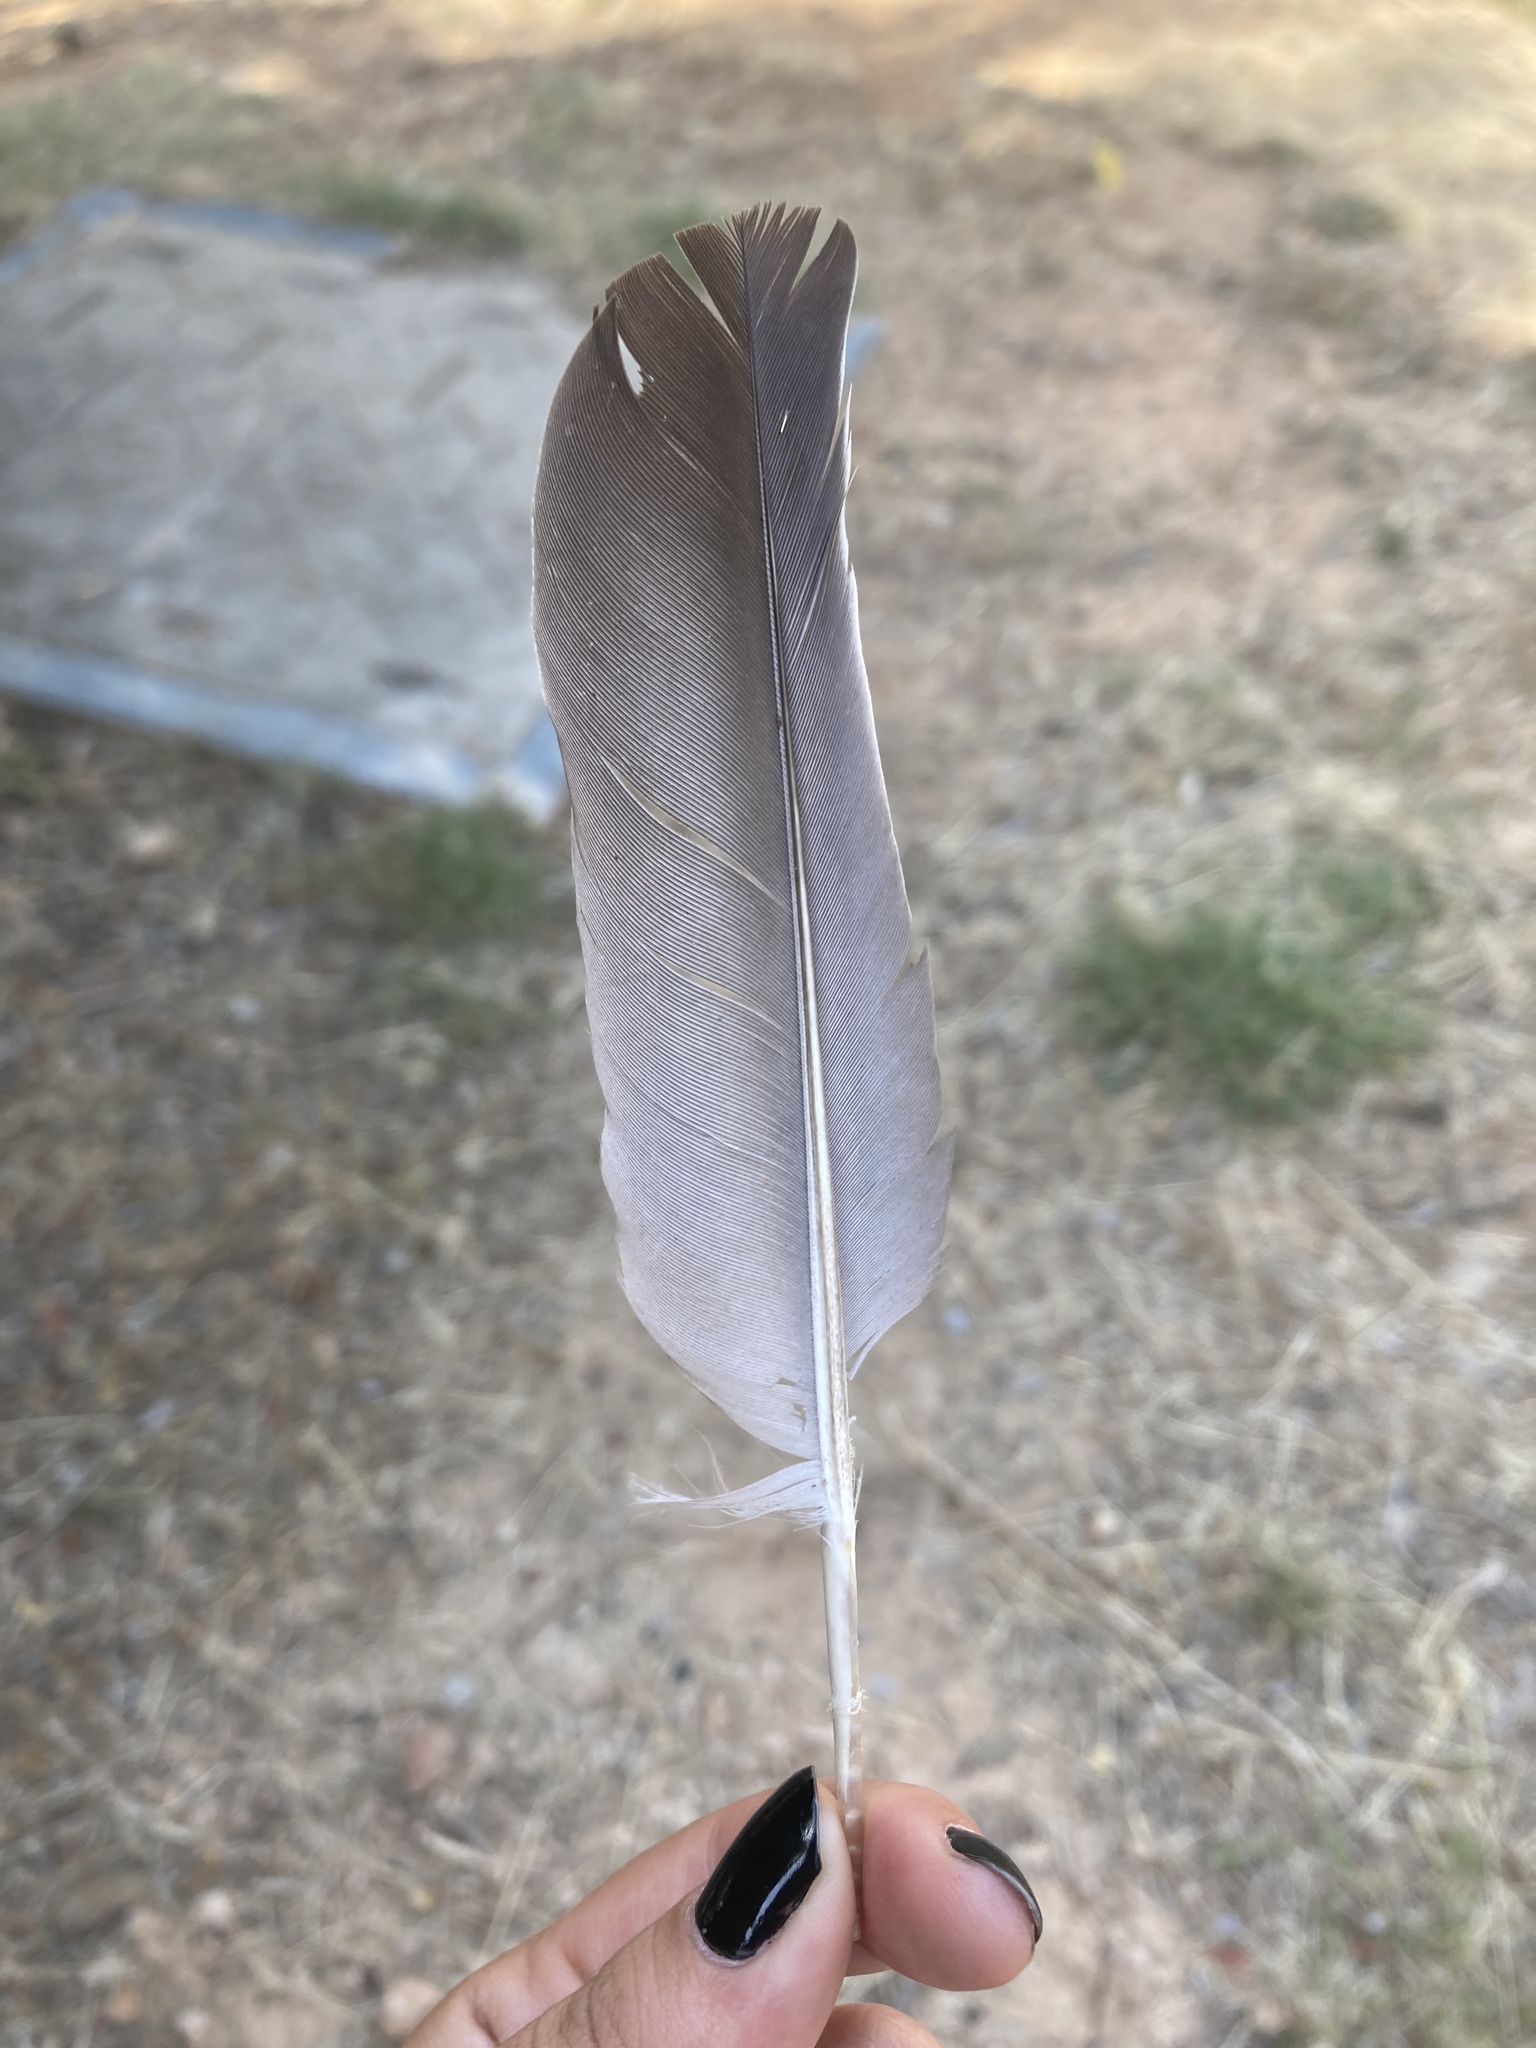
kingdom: Animalia
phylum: Chordata
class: Aves
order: Columbiformes
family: Columbidae
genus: Columba
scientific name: Columba palumbus
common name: Common wood pigeon
